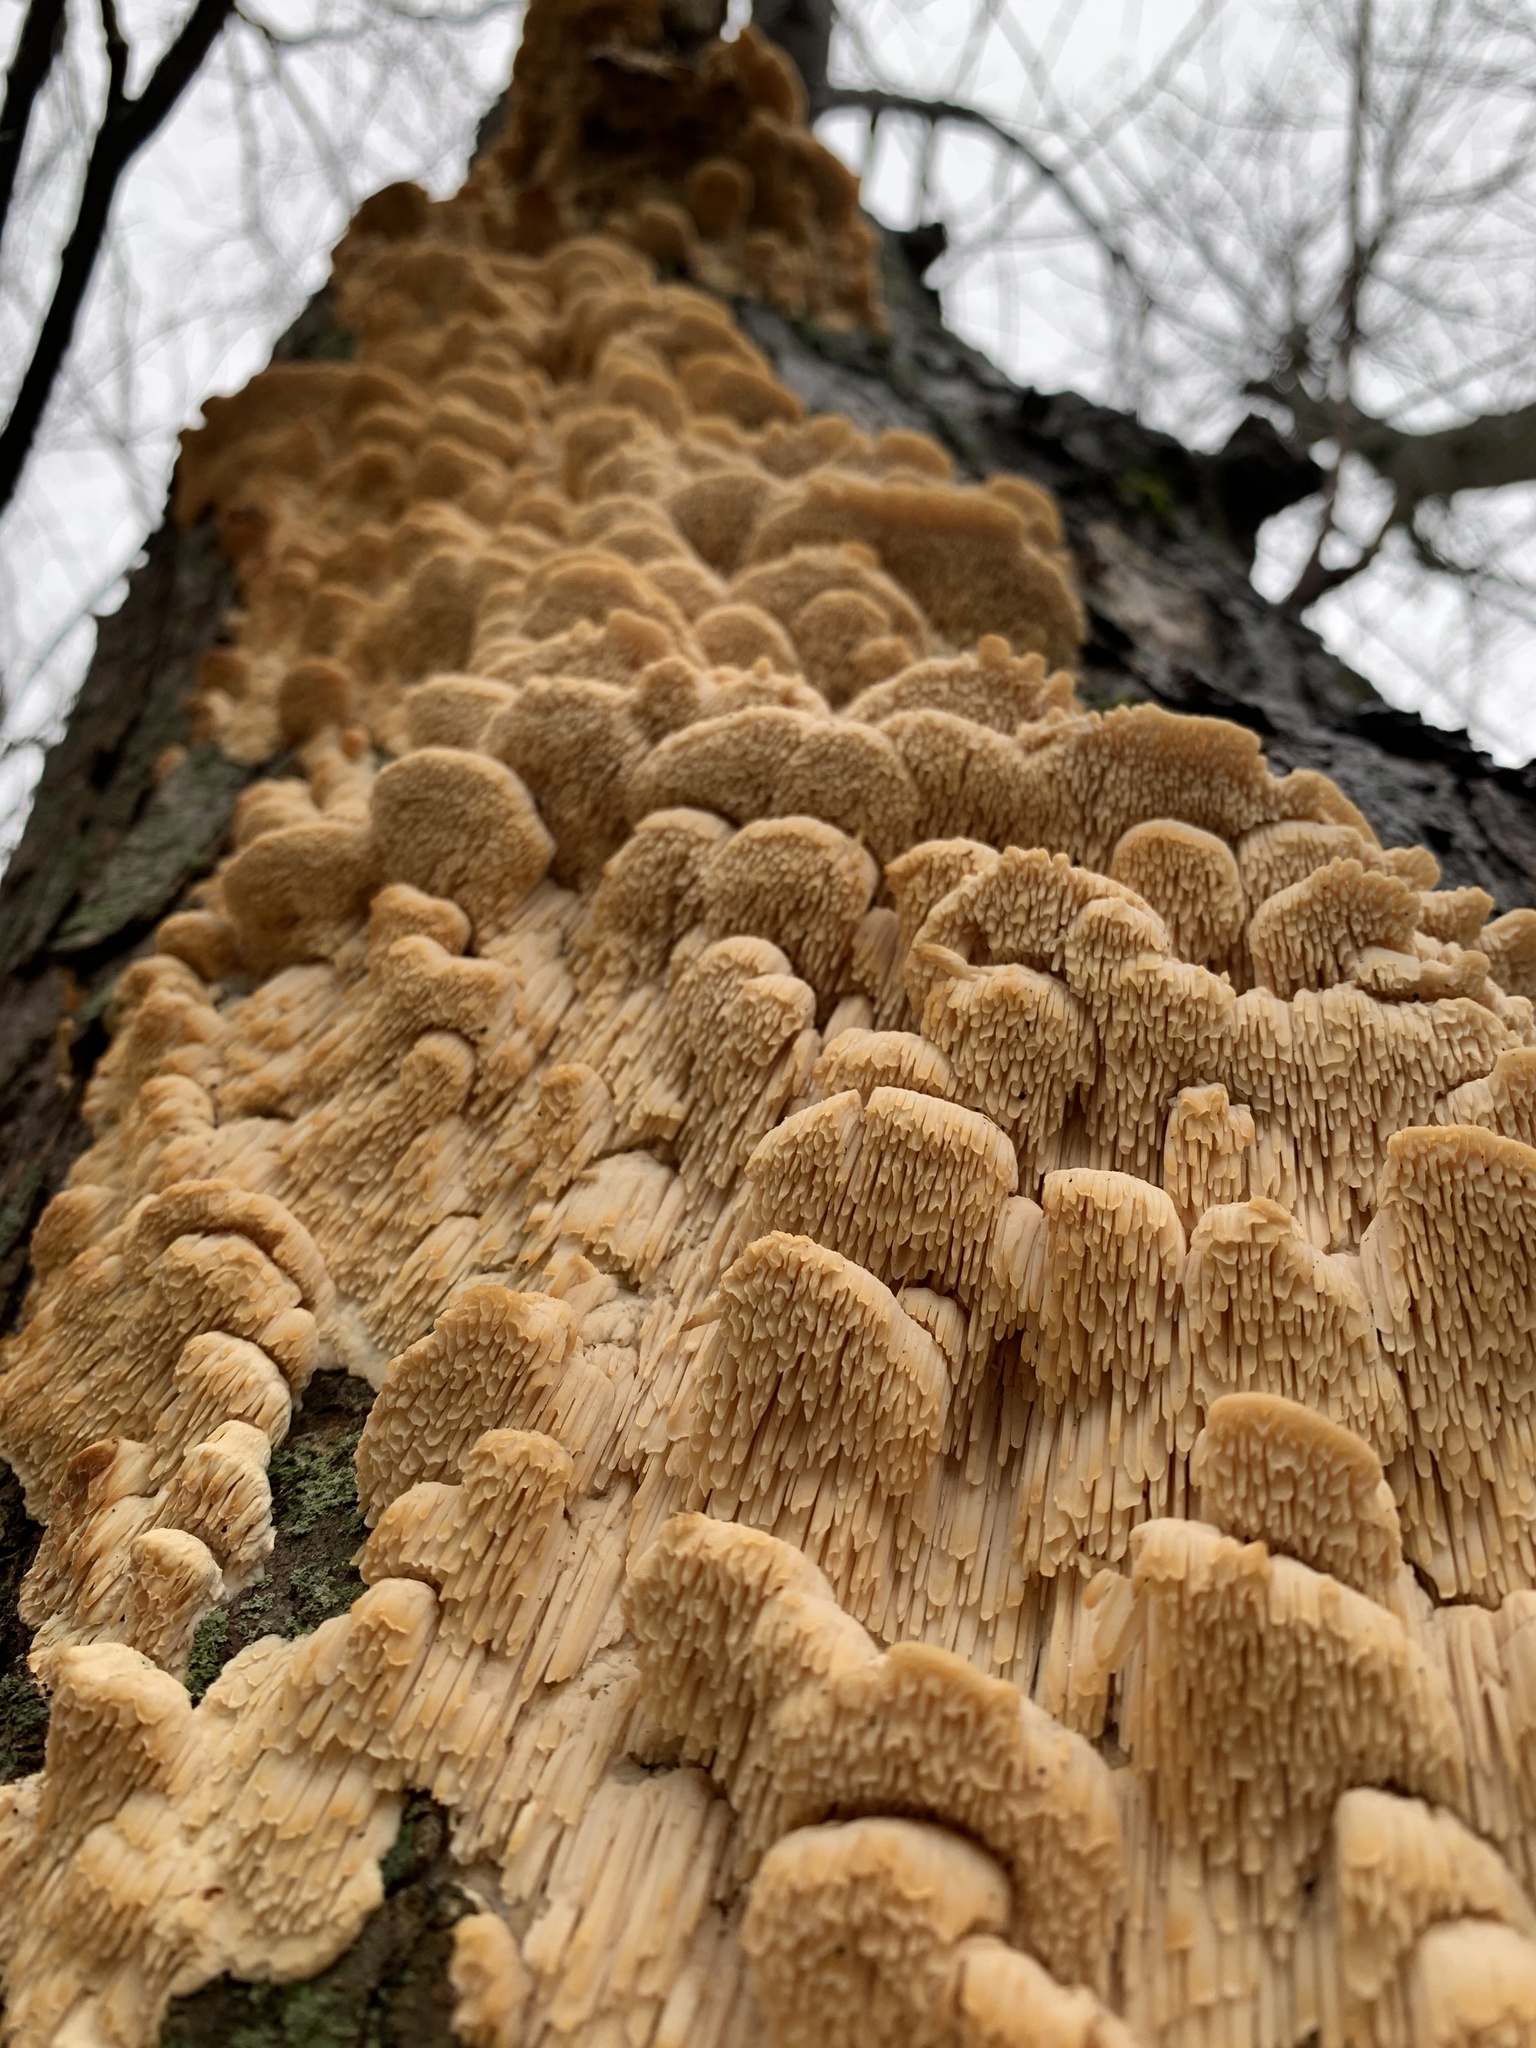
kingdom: Fungi
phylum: Basidiomycota
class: Agaricomycetes
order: Polyporales
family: Meruliaceae
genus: Irpiciporus
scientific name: Irpiciporus pachyodon
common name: Marshmallow polypore
